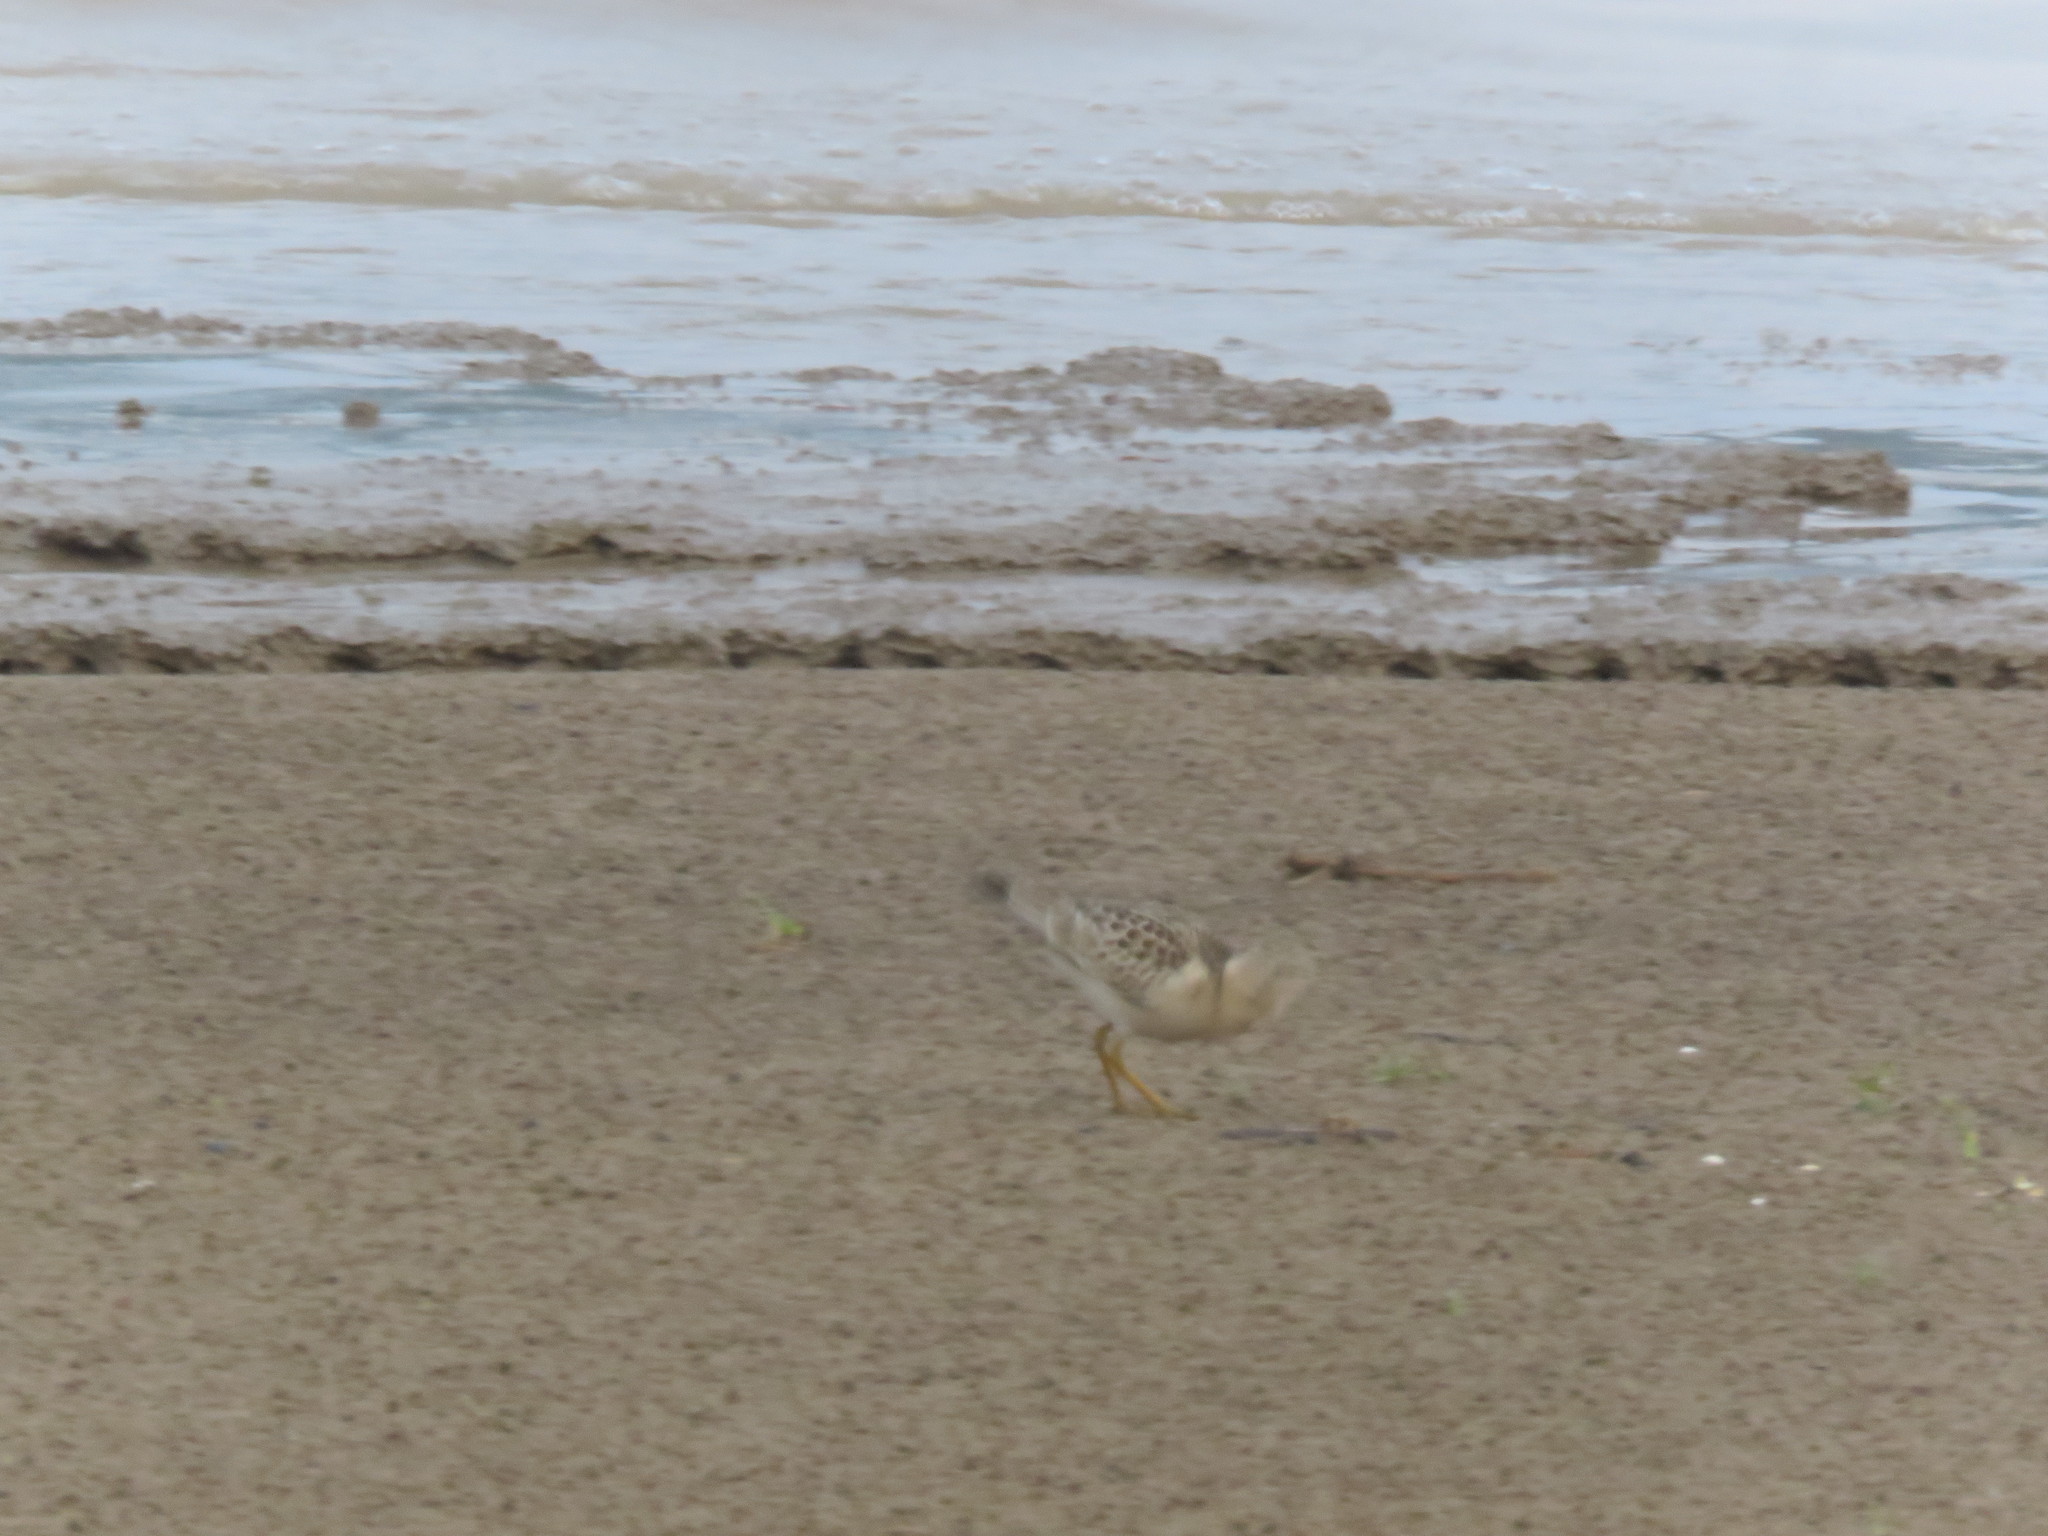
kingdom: Animalia
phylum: Chordata
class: Aves
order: Charadriiformes
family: Scolopacidae
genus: Calidris
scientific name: Calidris subruficollis
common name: Buff-breasted sandpiper
